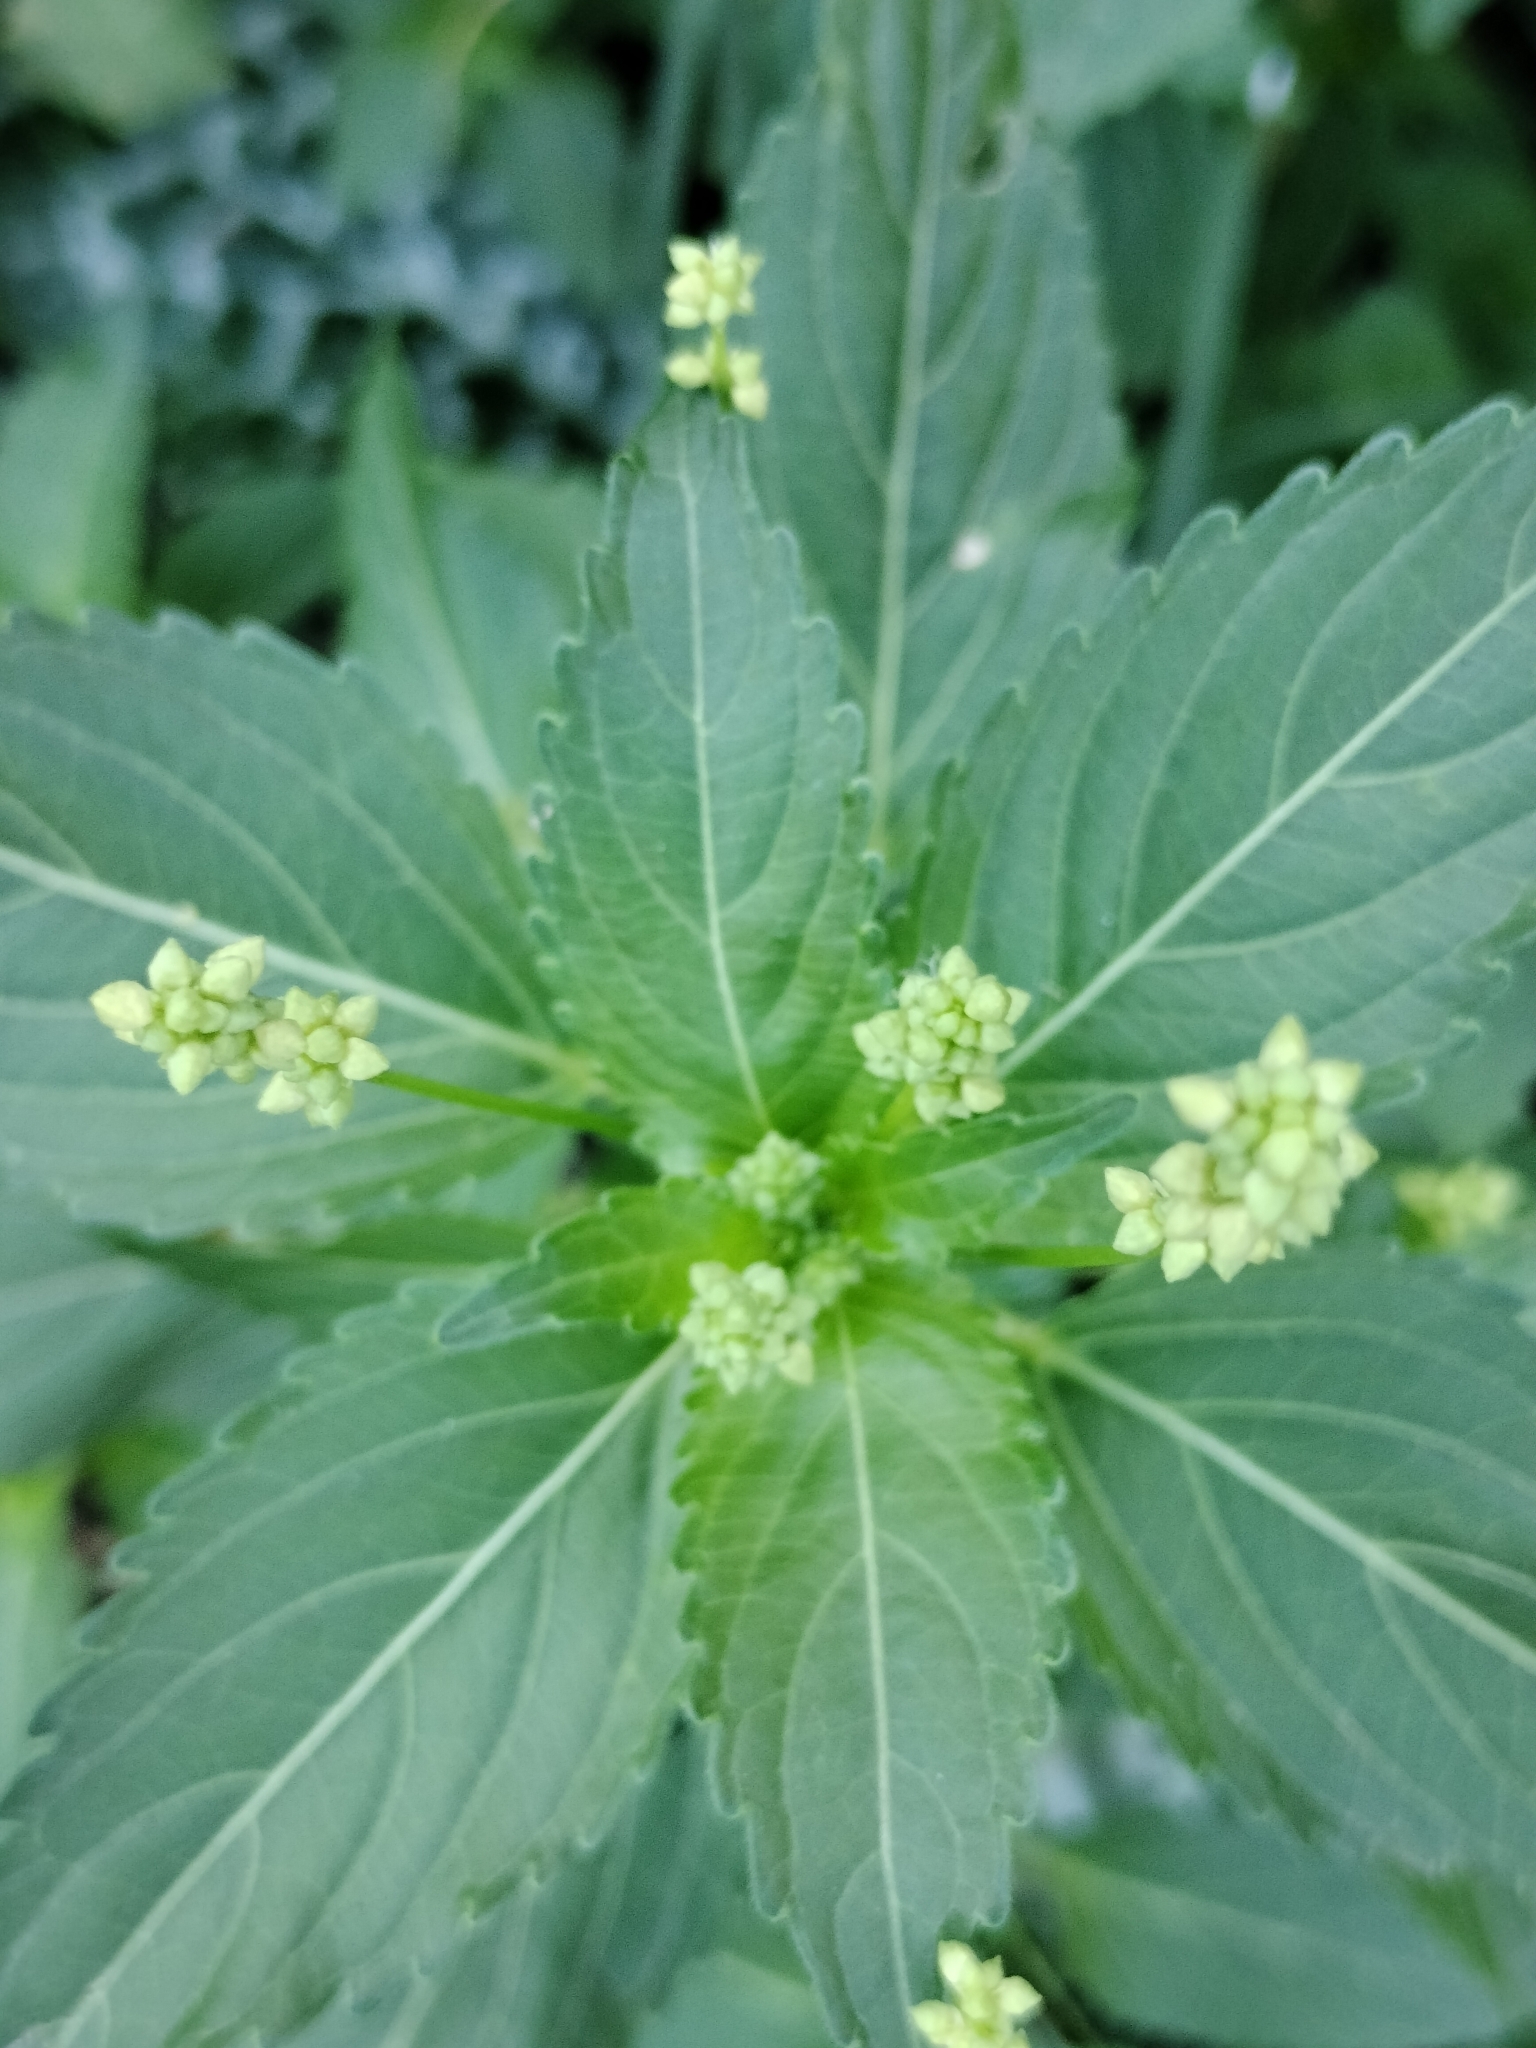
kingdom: Plantae
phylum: Tracheophyta
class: Magnoliopsida
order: Malpighiales
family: Euphorbiaceae
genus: Mercurialis
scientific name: Mercurialis annua
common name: Annual mercury
